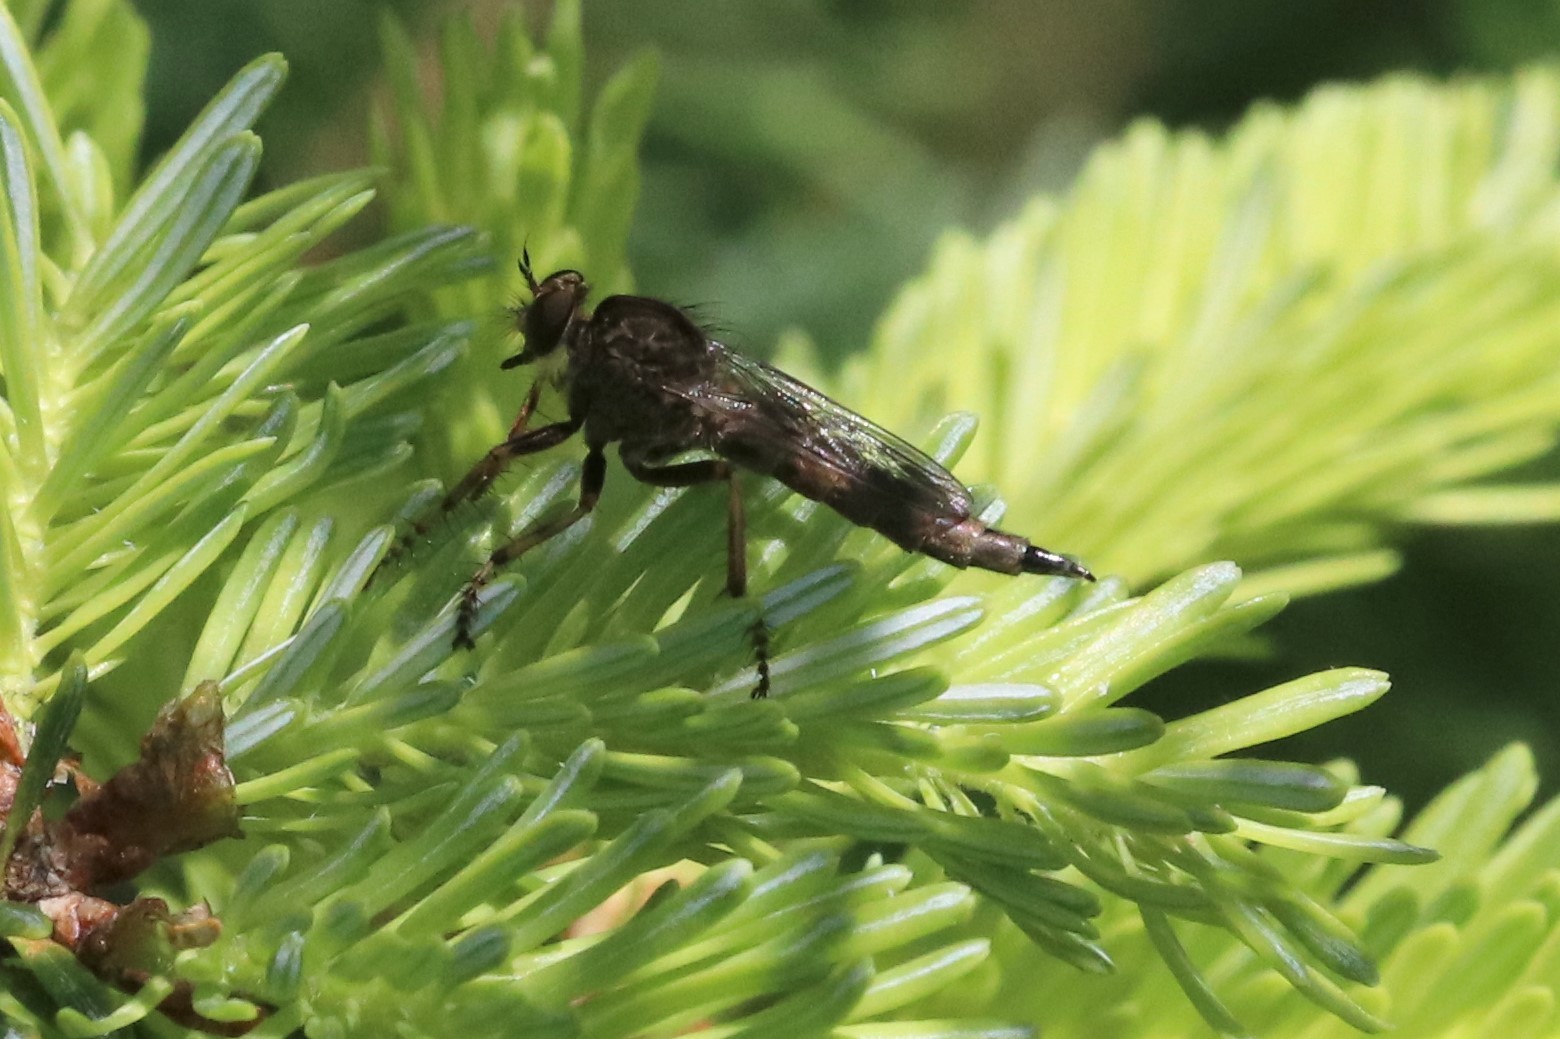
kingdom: Animalia
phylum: Arthropoda
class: Insecta
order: Diptera
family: Asilidae
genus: Machimus
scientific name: Machimus snowii
